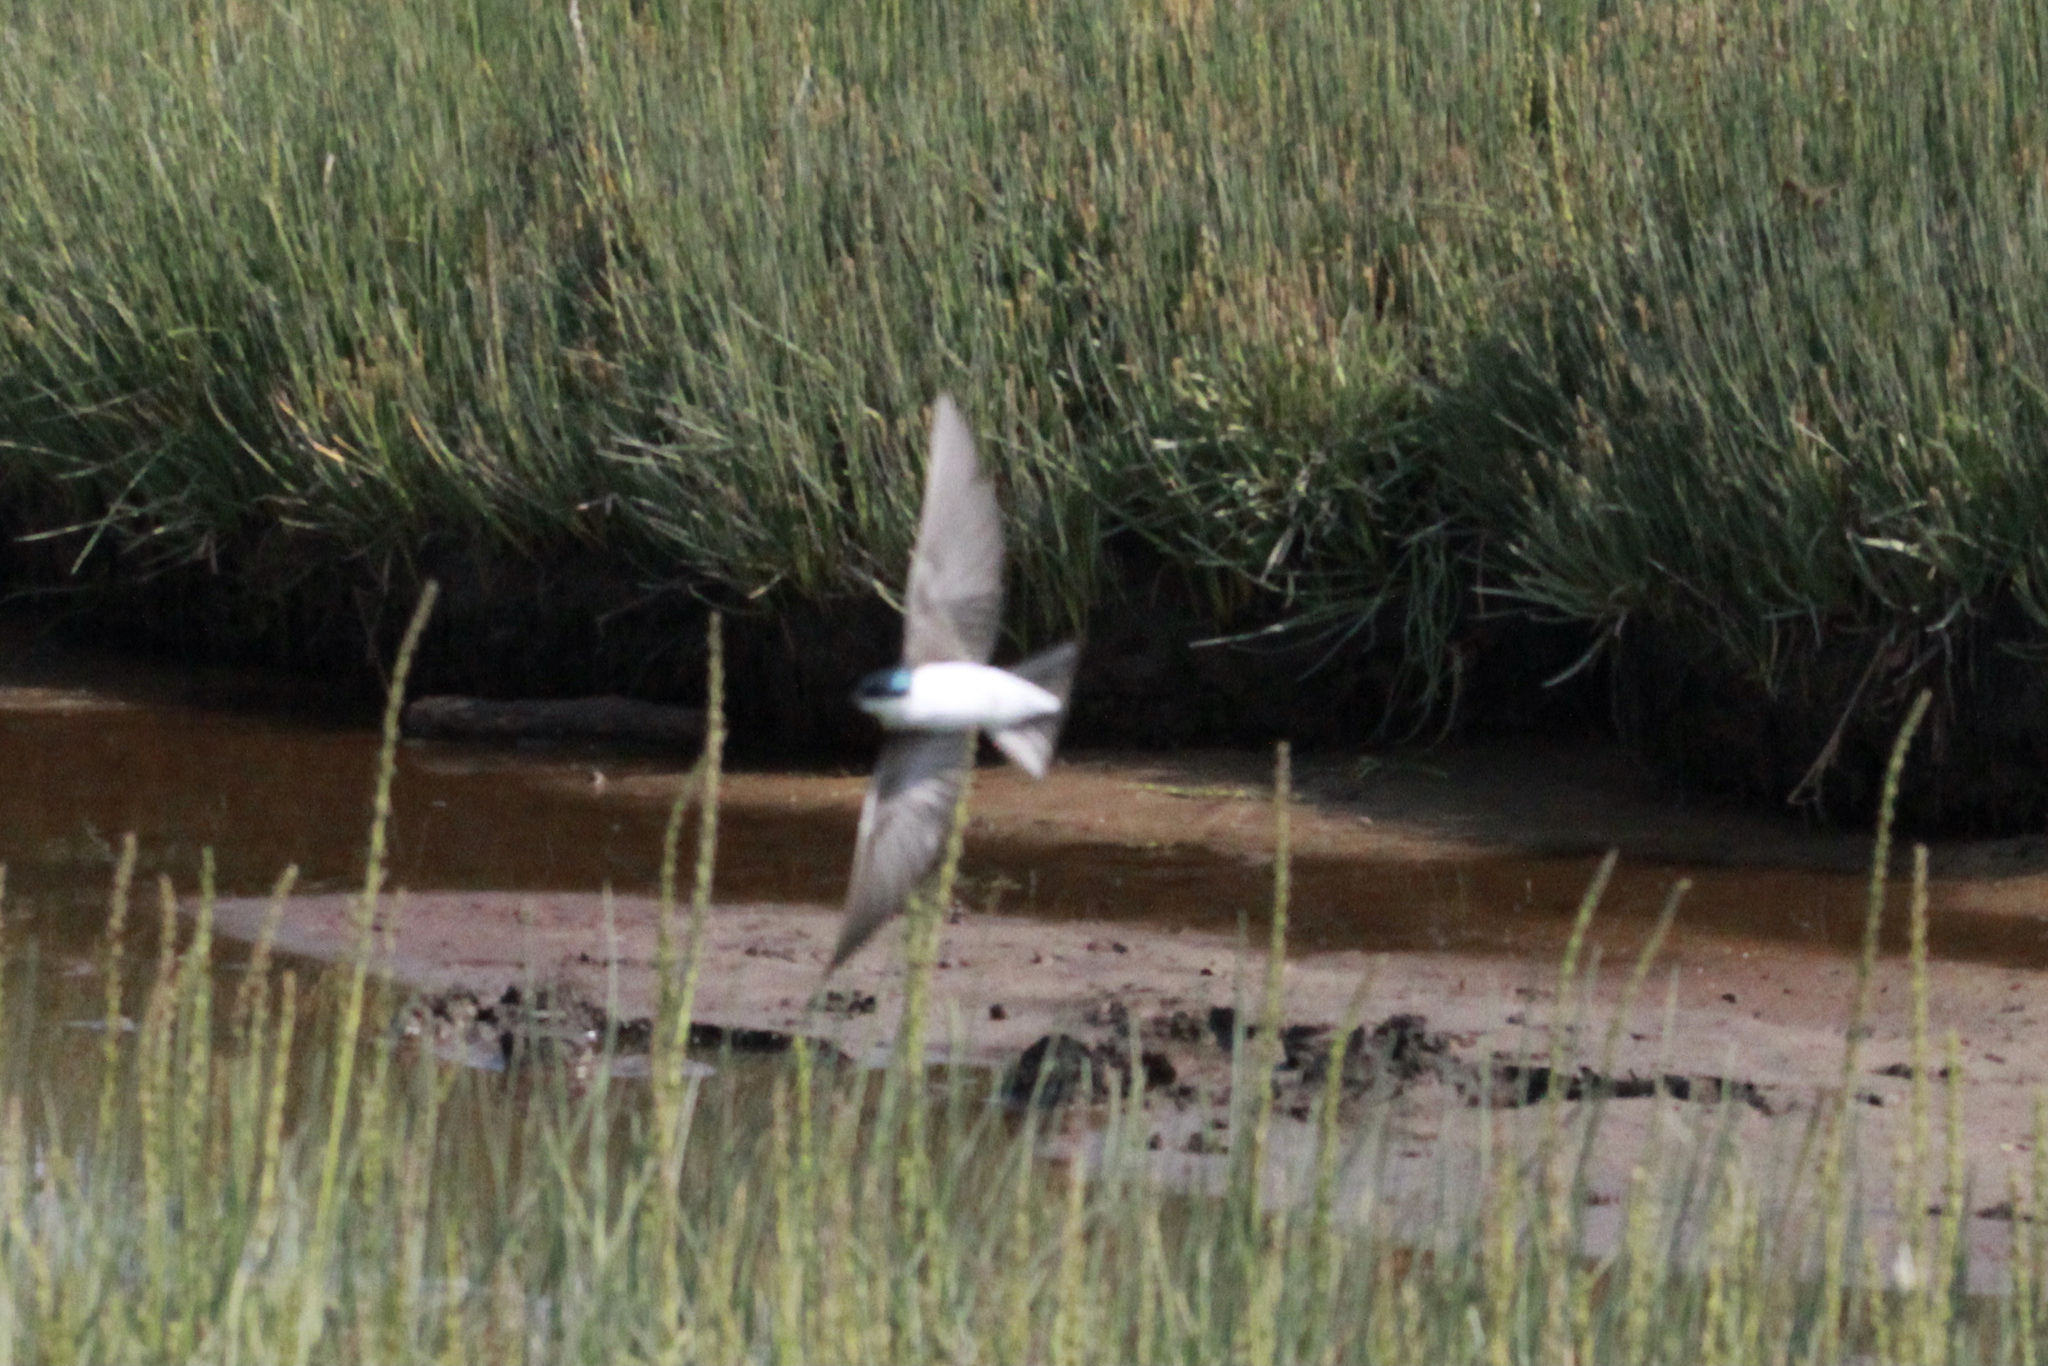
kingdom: Animalia
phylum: Chordata
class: Aves
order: Passeriformes
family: Hirundinidae
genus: Tachycineta
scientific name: Tachycineta bicolor
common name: Tree swallow
